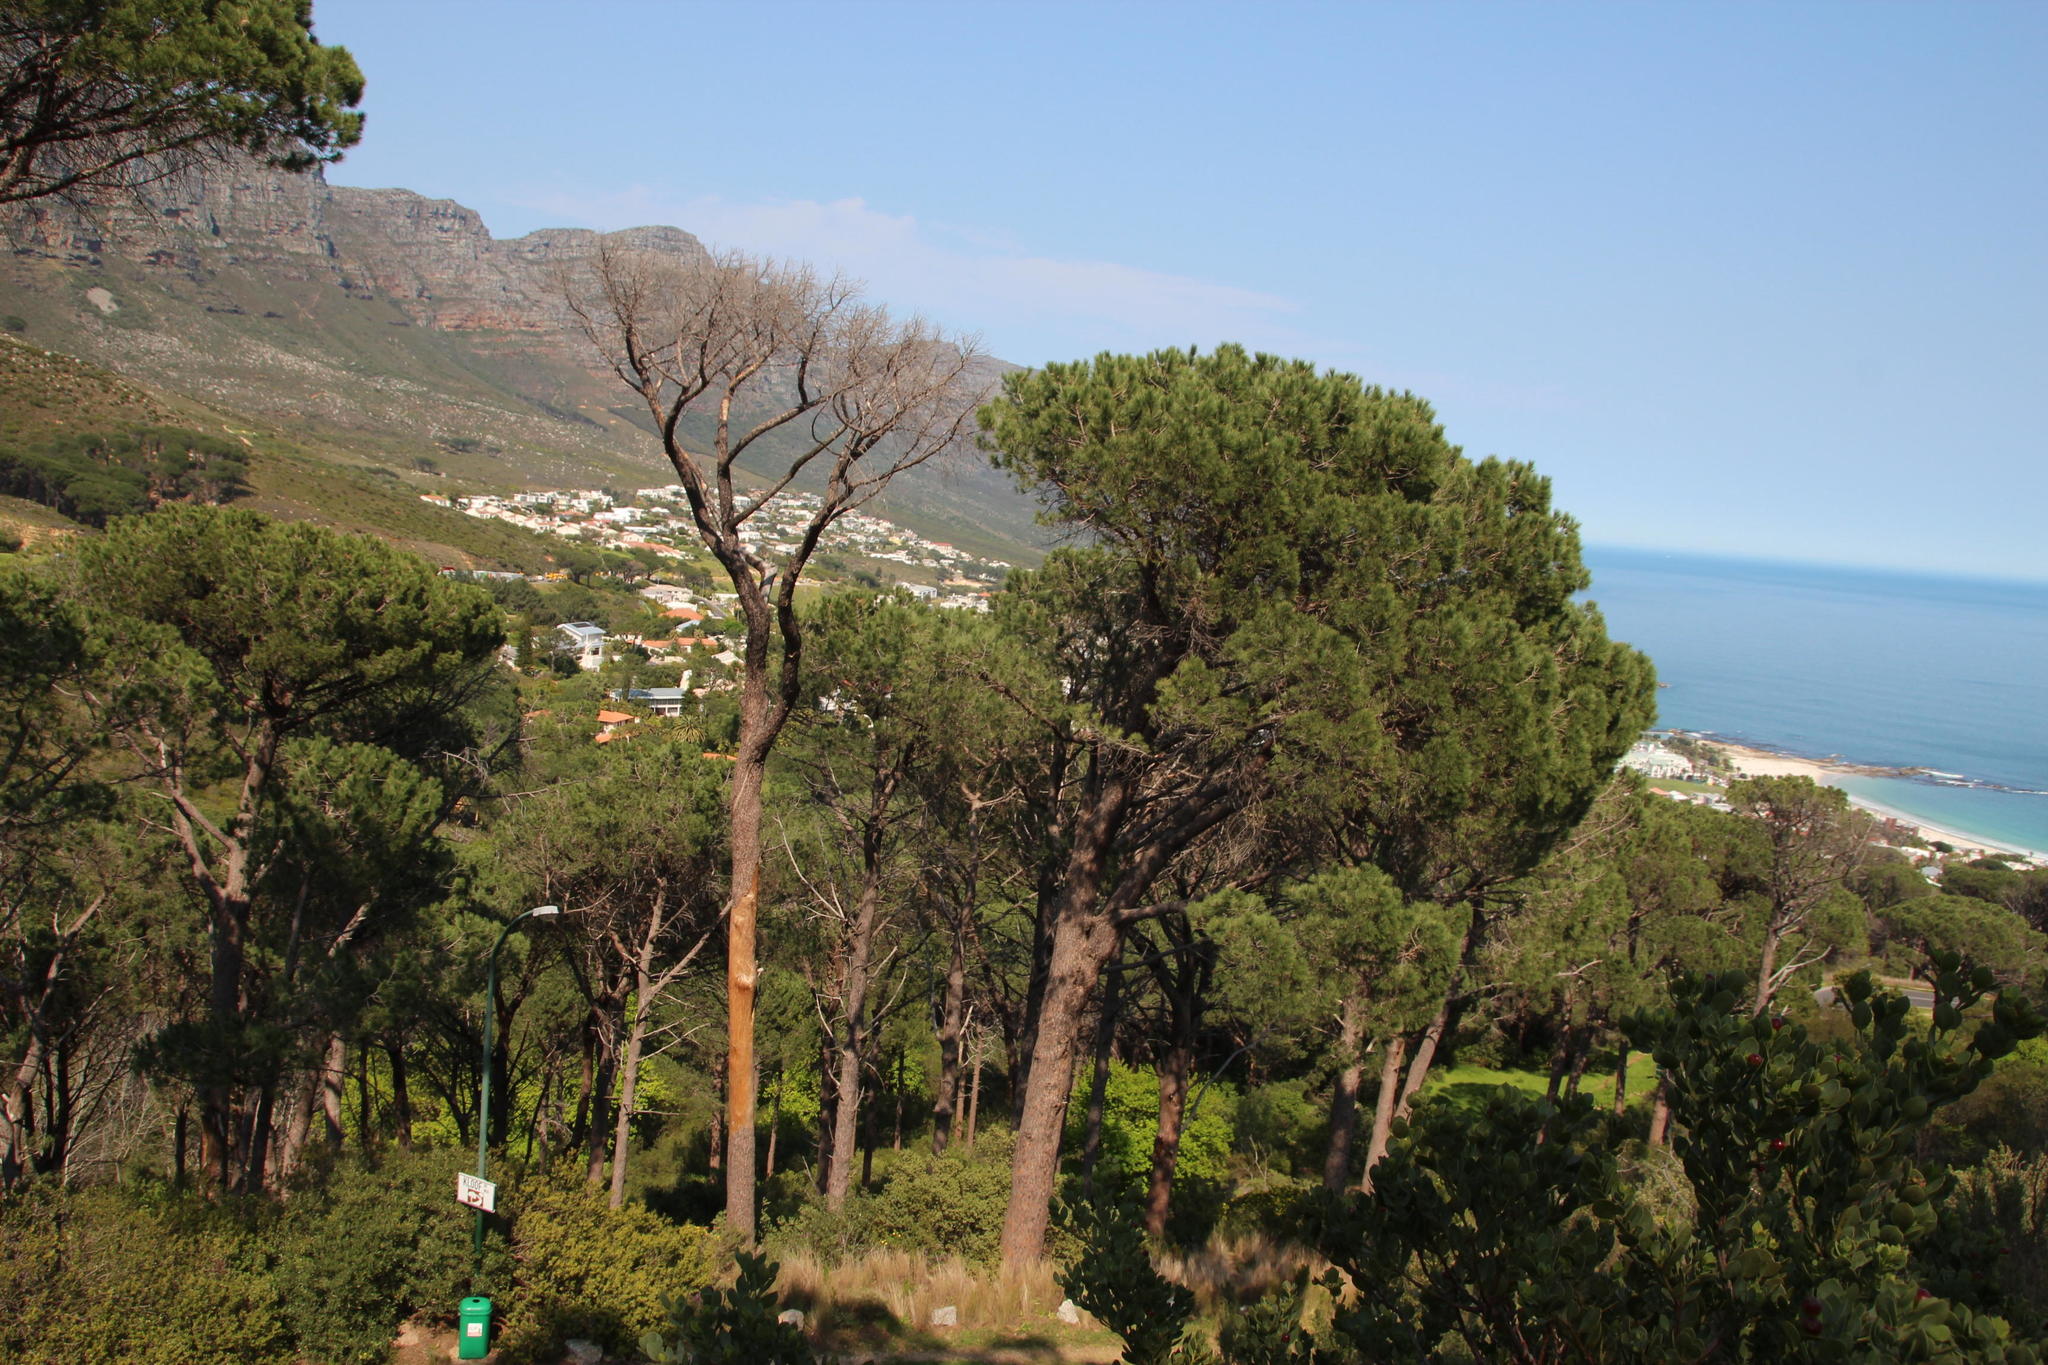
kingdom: Plantae
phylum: Tracheophyta
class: Pinopsida
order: Pinales
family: Pinaceae
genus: Pinus
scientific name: Pinus pinea
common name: Italian stone pine
